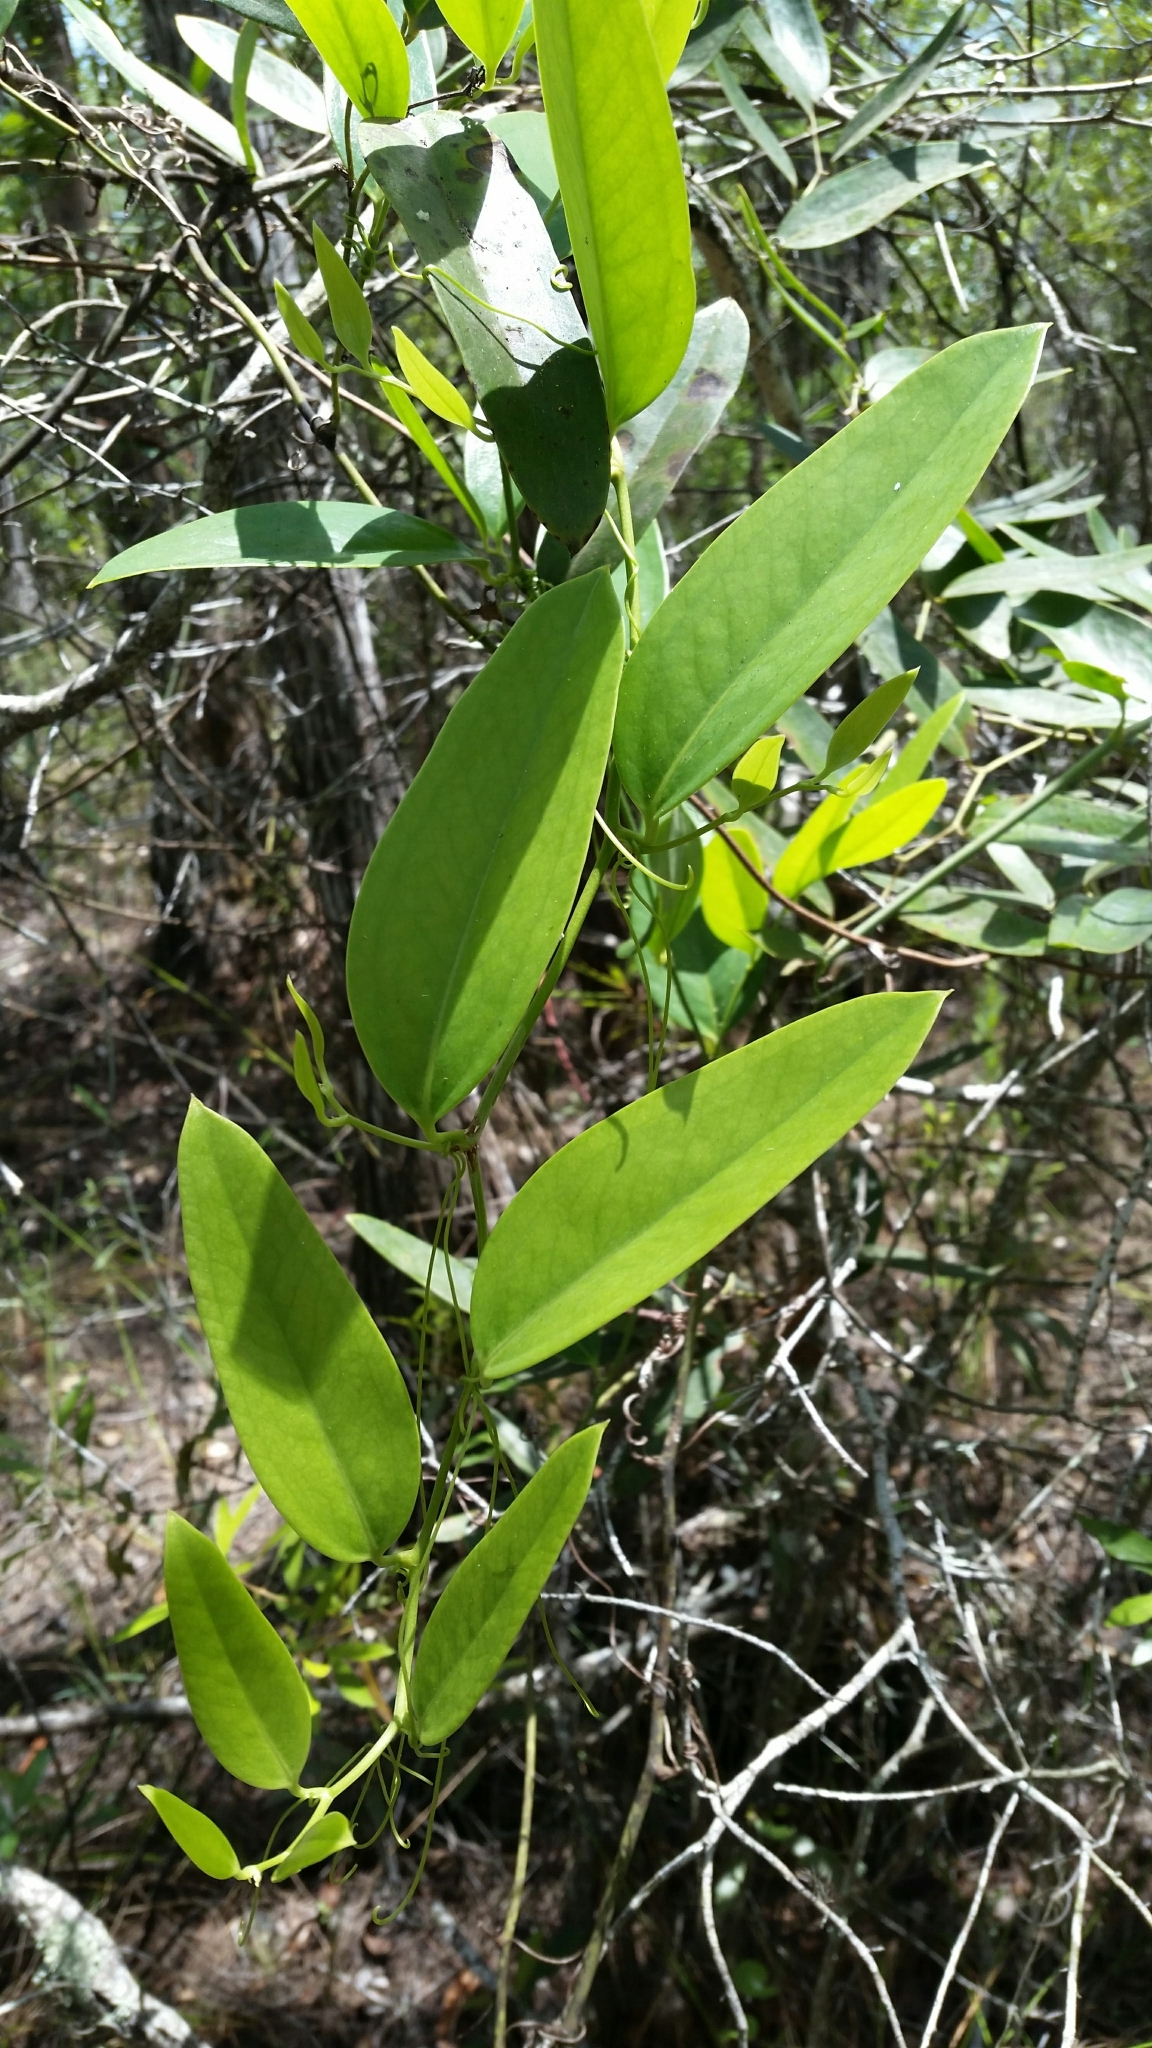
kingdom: Plantae
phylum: Tracheophyta
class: Liliopsida
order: Liliales
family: Smilacaceae
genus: Smilax
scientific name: Smilax laurifolia
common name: Bamboovine
